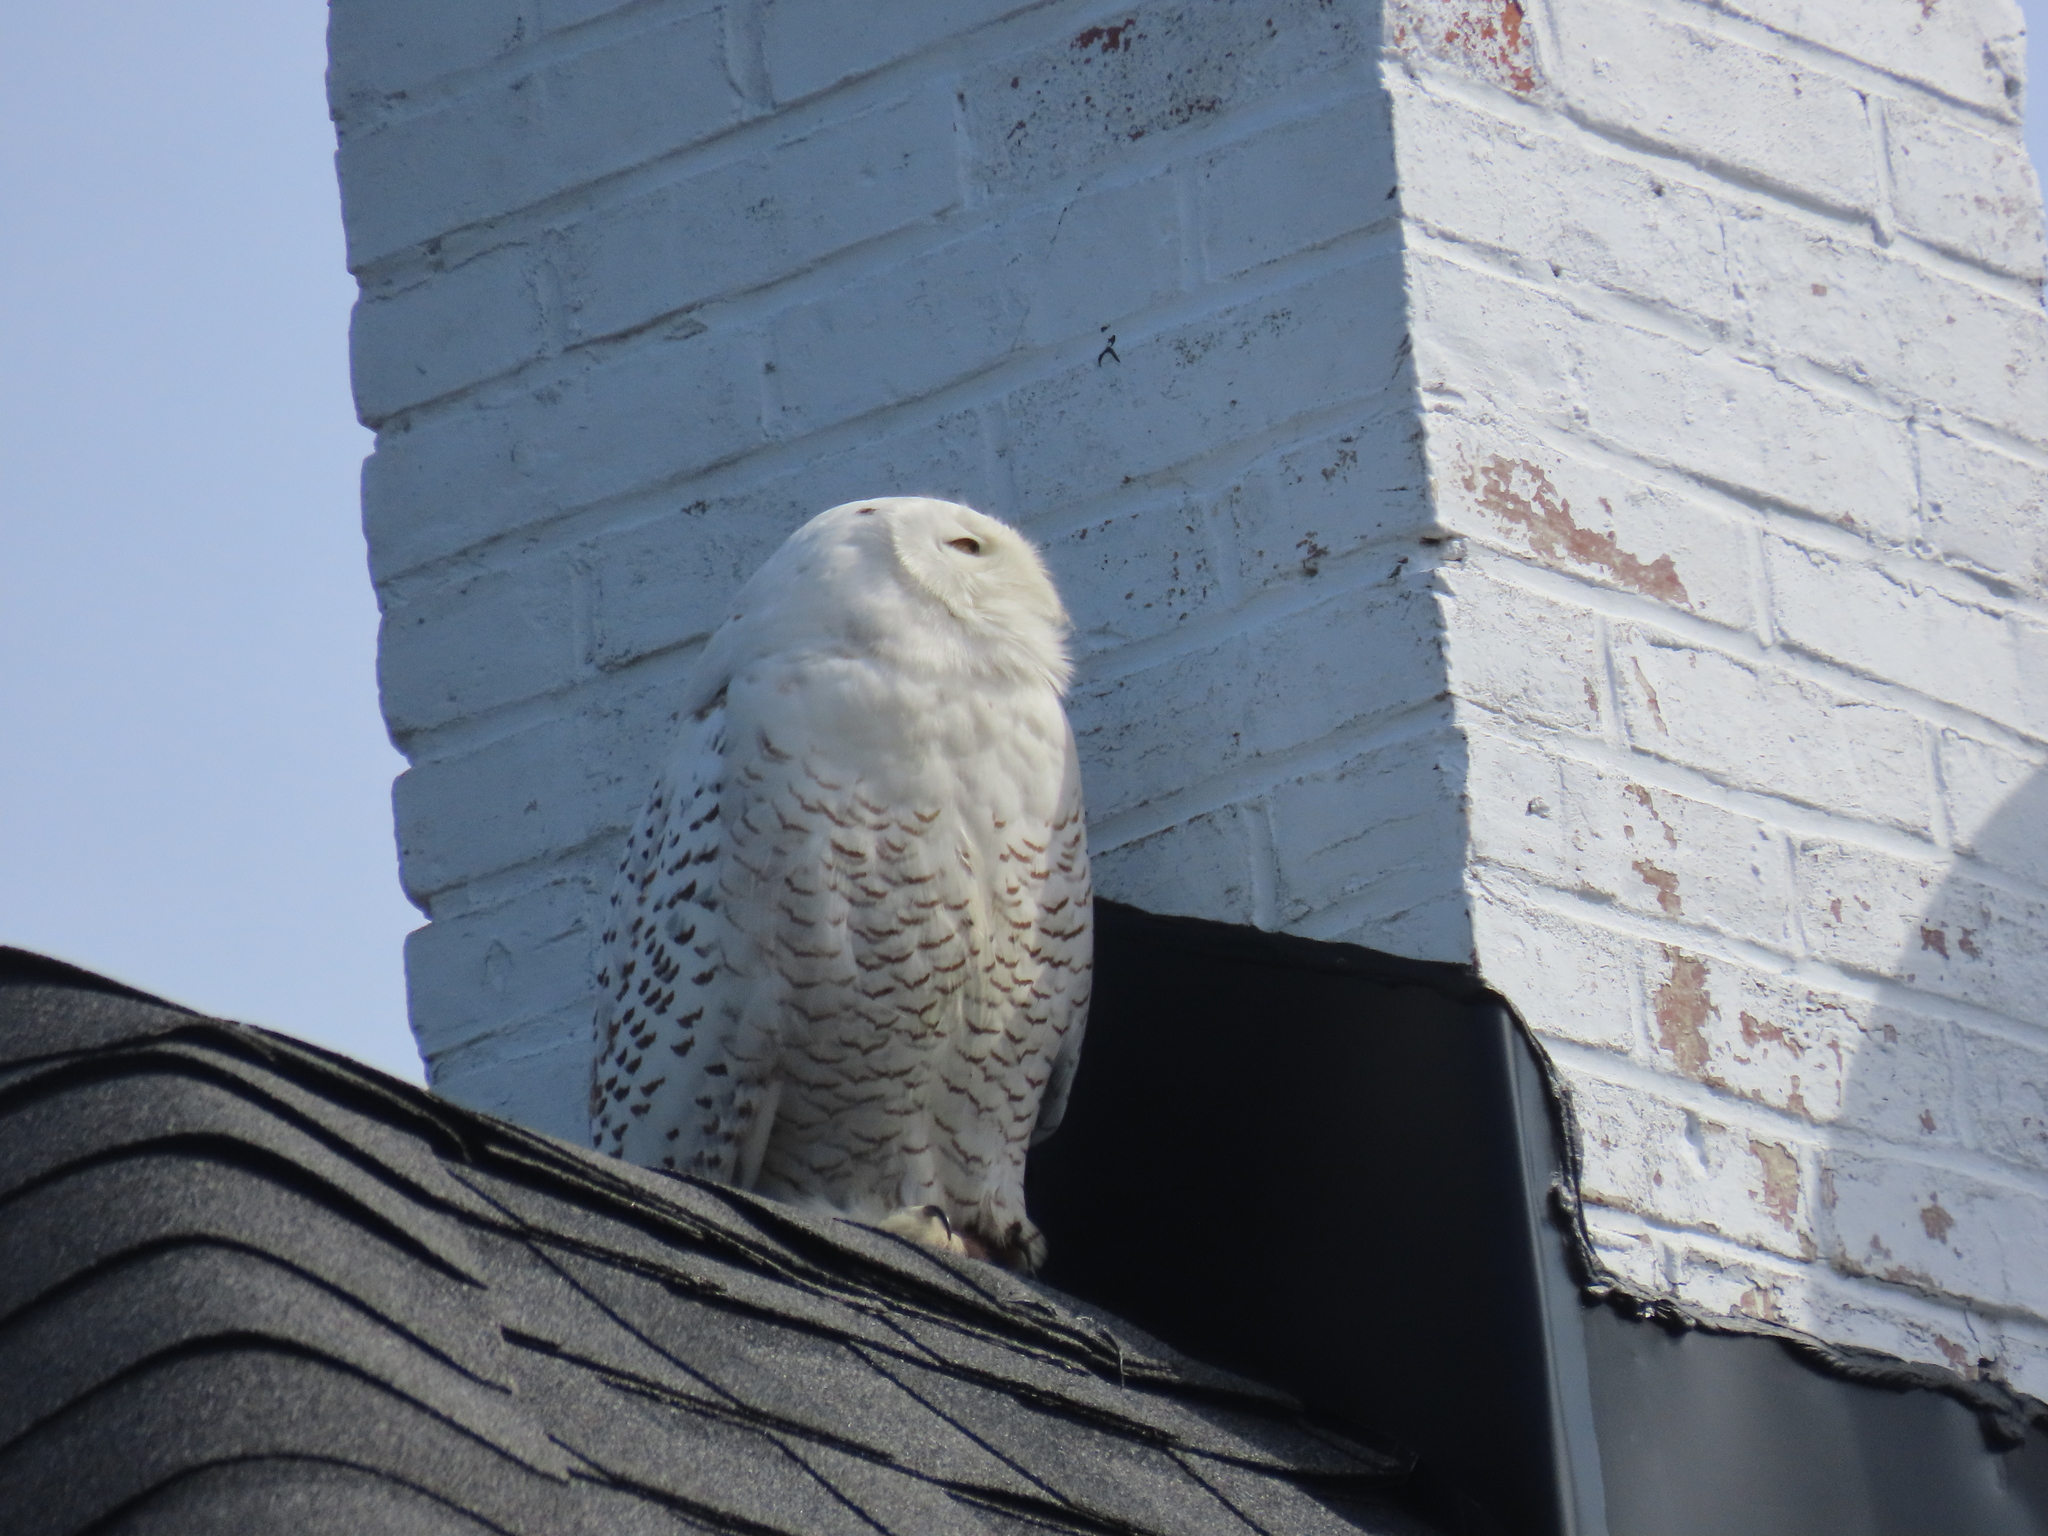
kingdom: Animalia
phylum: Chordata
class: Aves
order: Strigiformes
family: Strigidae
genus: Bubo
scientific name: Bubo scandiacus
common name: Snowy owl
